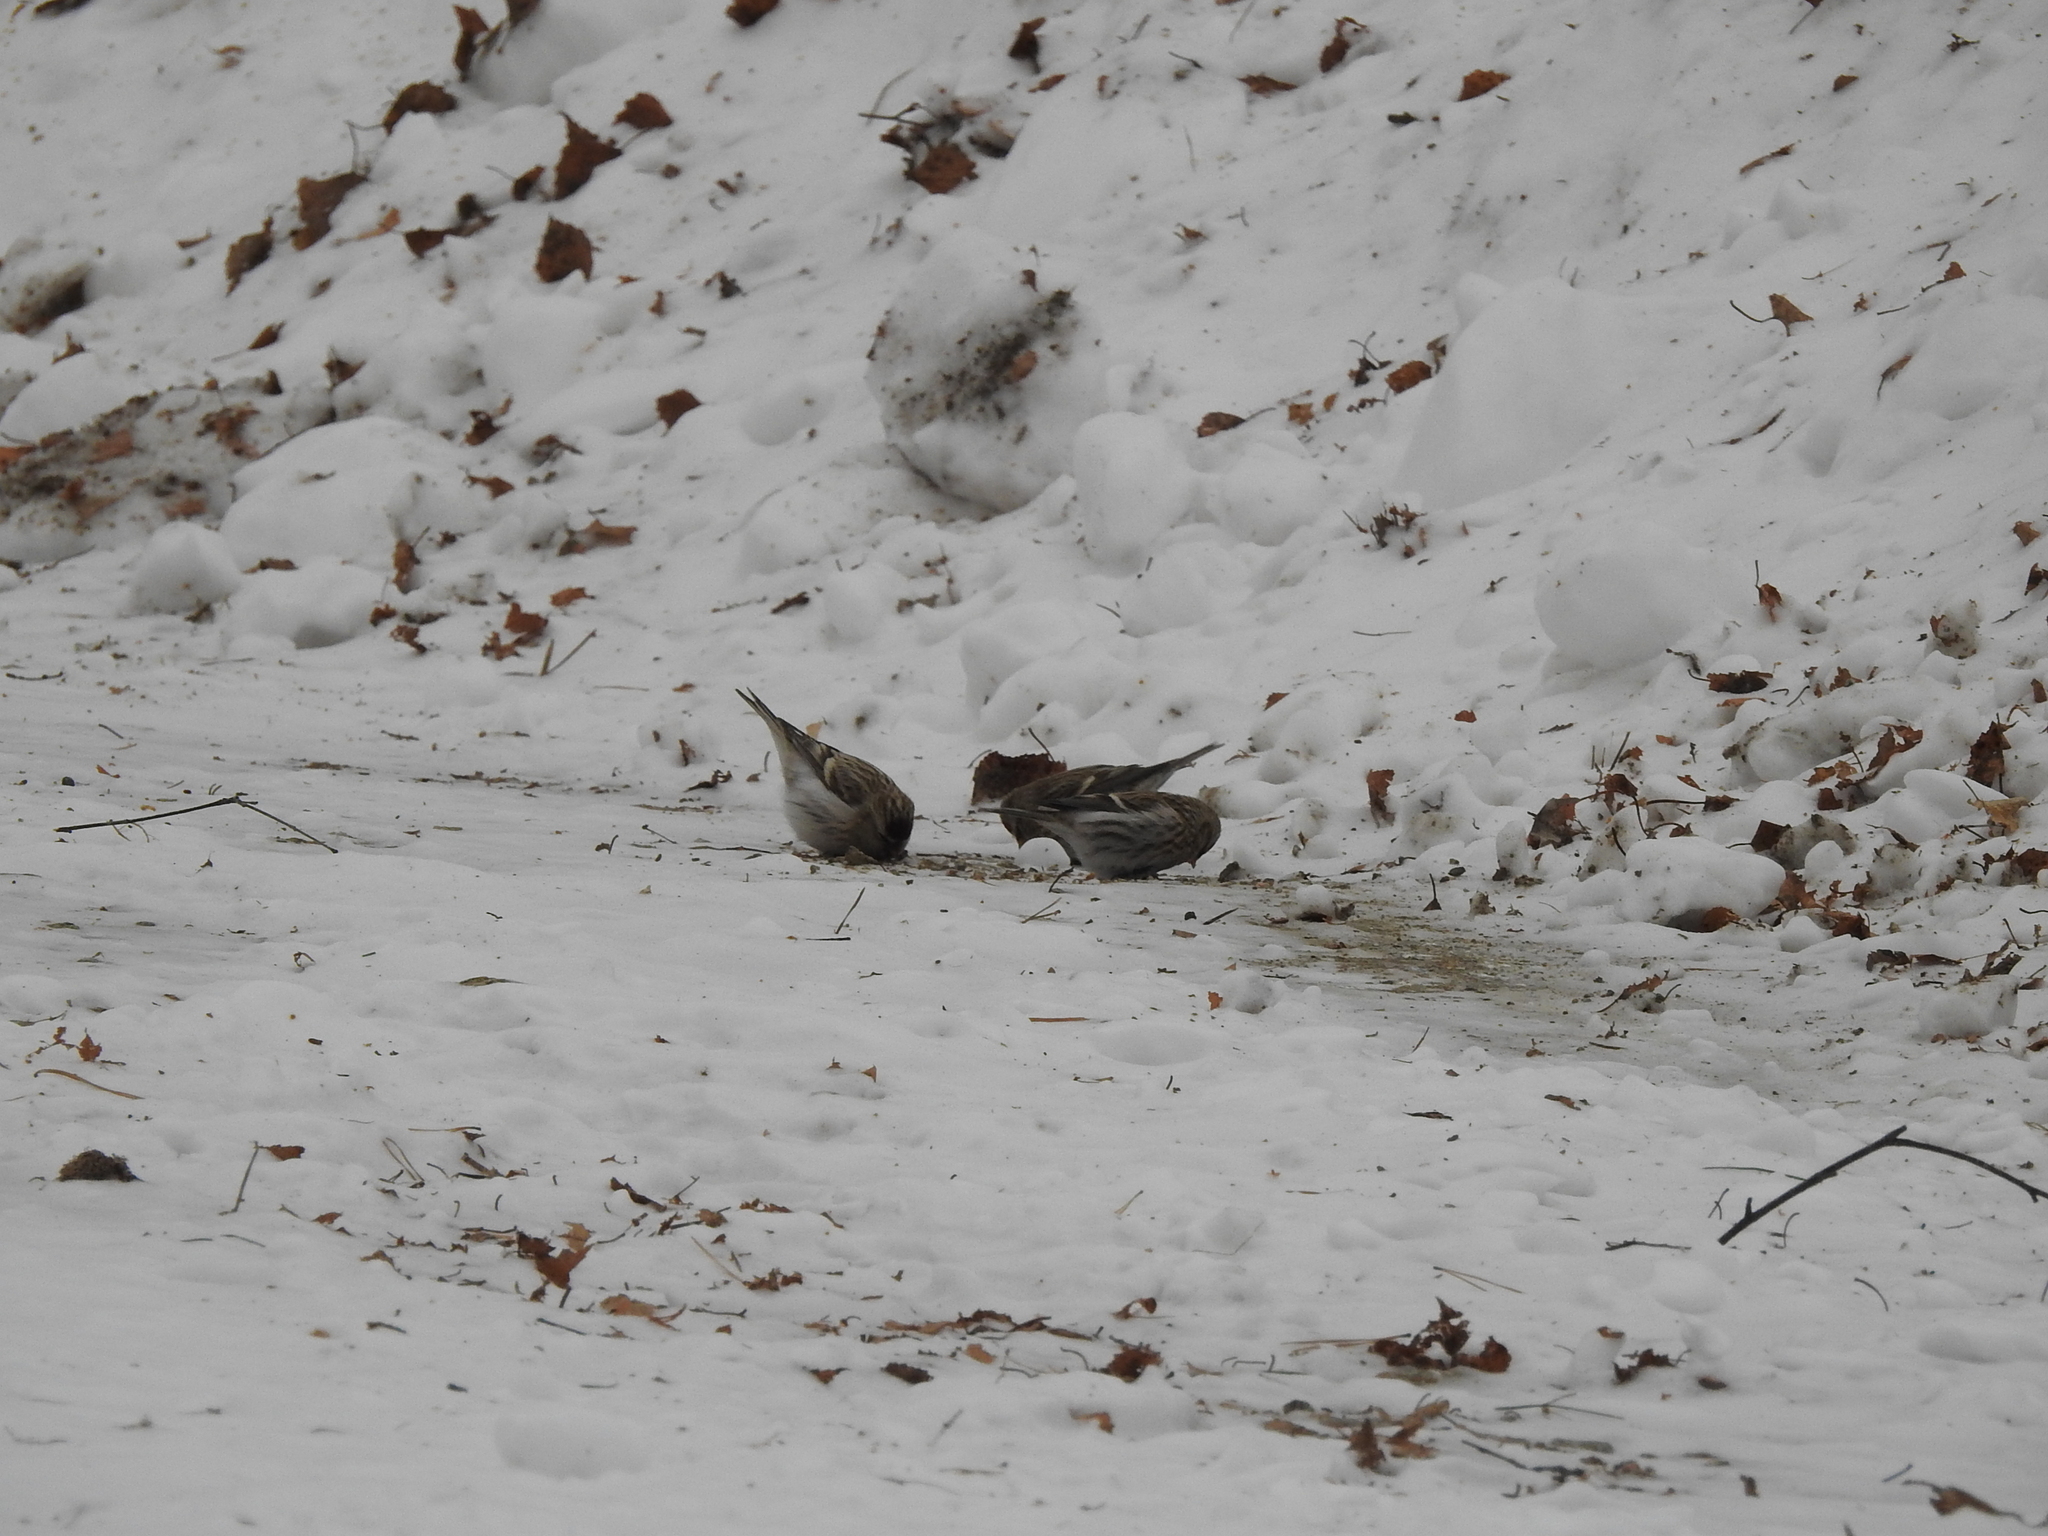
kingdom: Animalia
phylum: Chordata
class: Aves
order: Passeriformes
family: Fringillidae
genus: Acanthis
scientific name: Acanthis flammea
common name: Common redpoll
